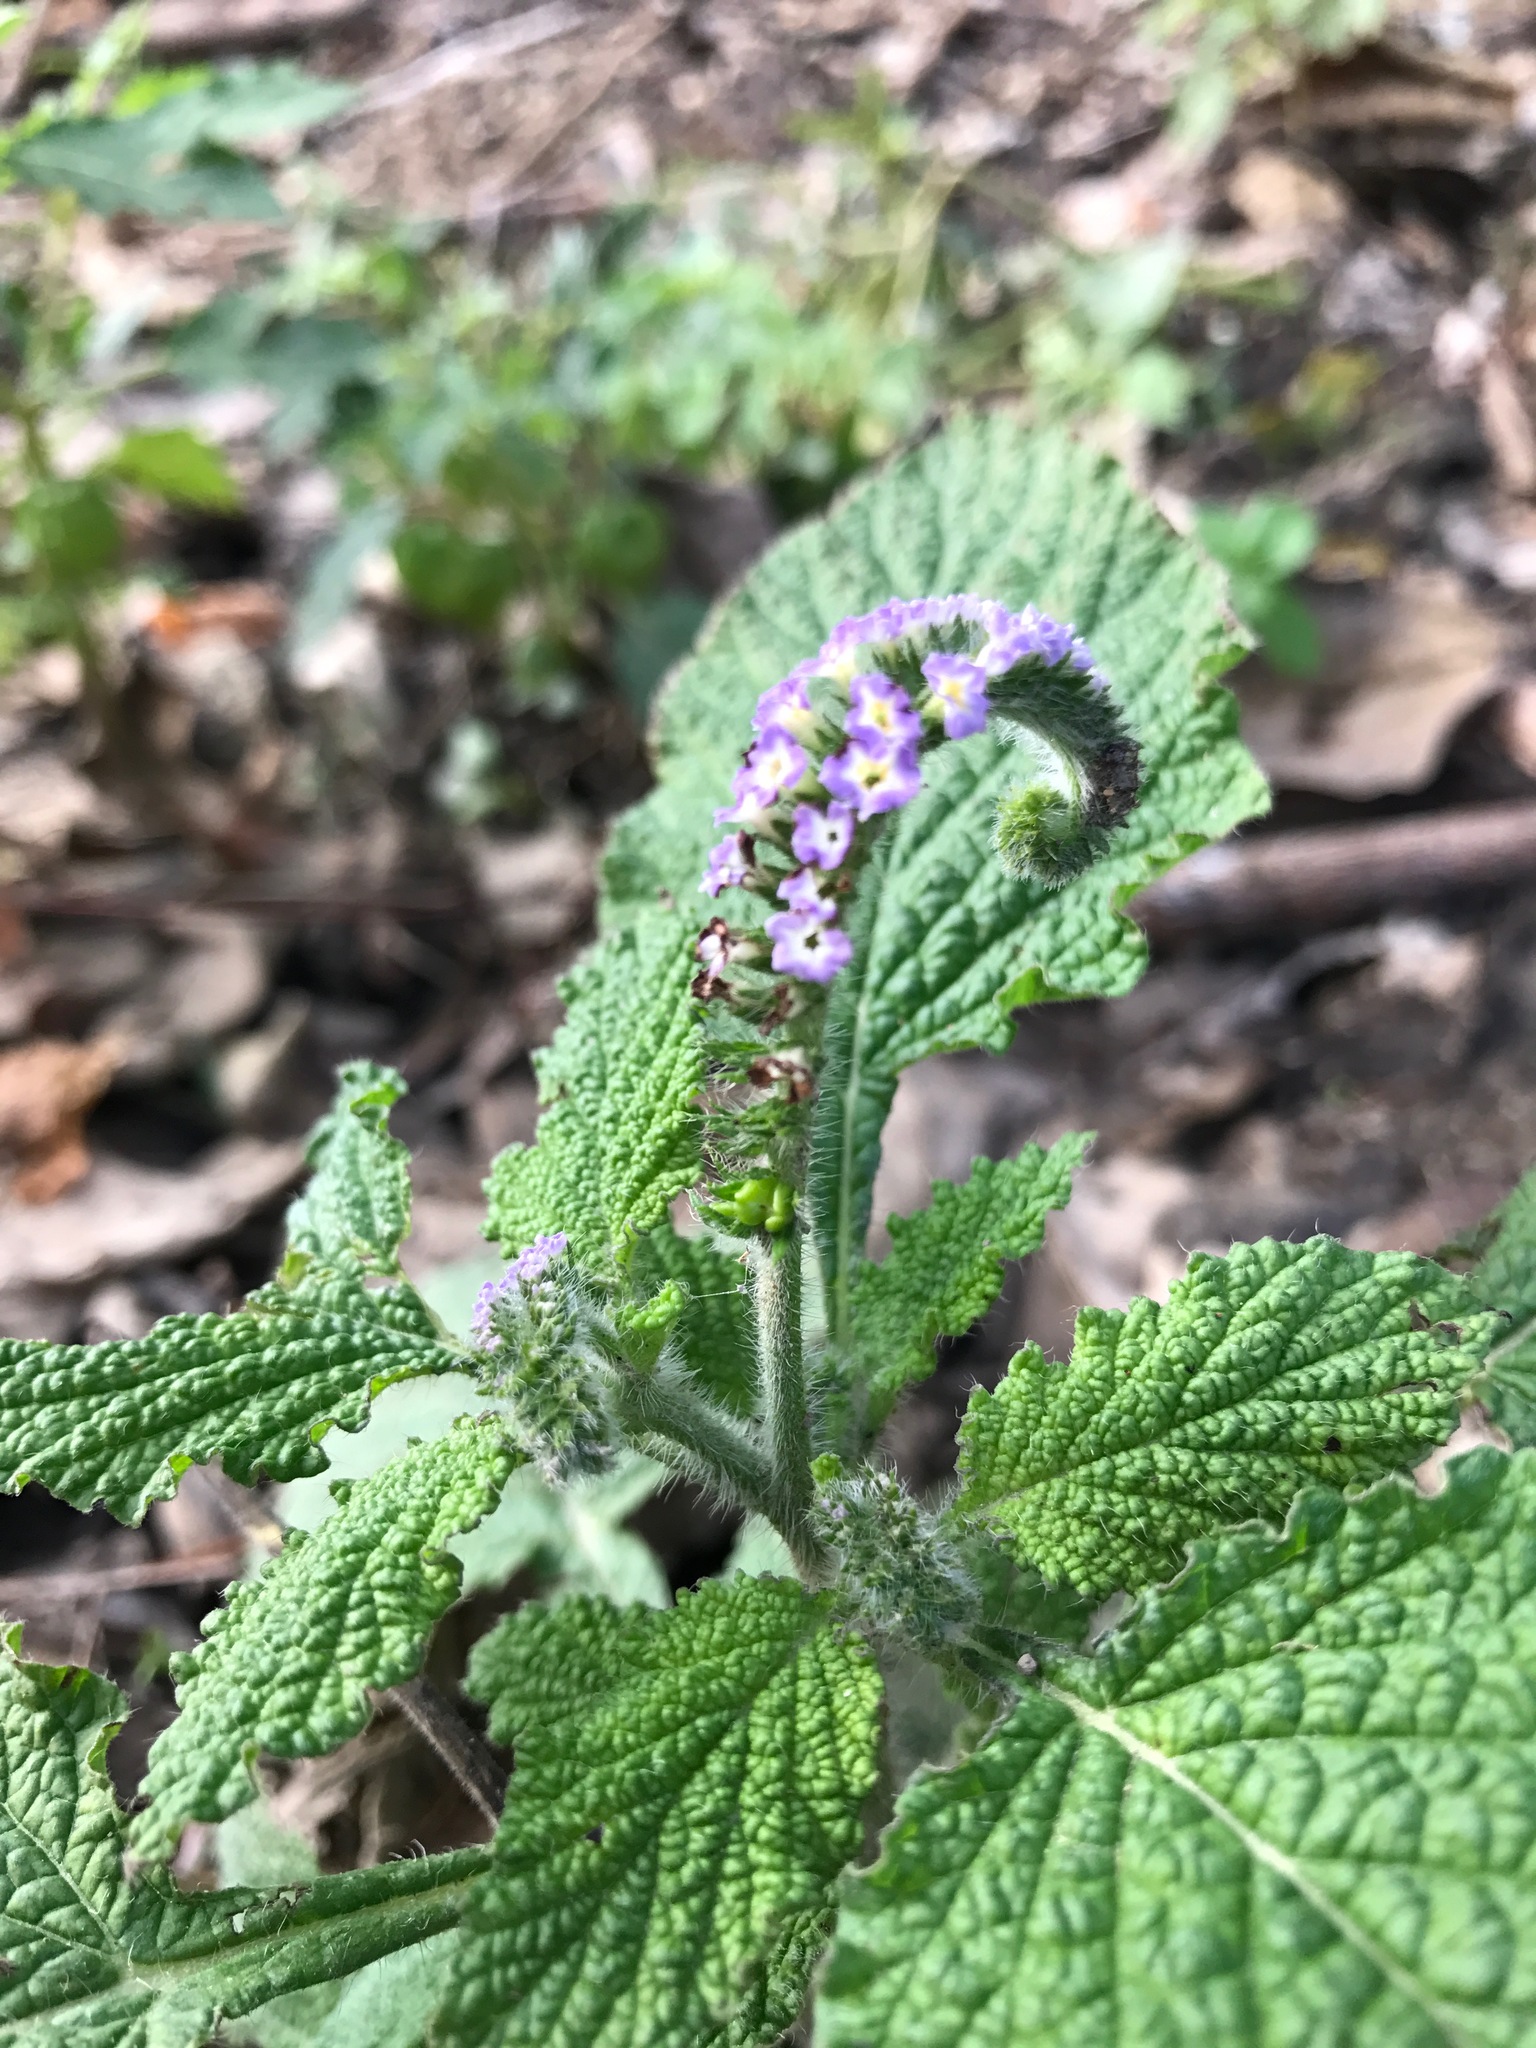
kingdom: Plantae
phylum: Tracheophyta
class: Magnoliopsida
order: Boraginales
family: Heliotropiaceae
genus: Heliotropium
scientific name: Heliotropium indicum
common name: Indian heliotrope
